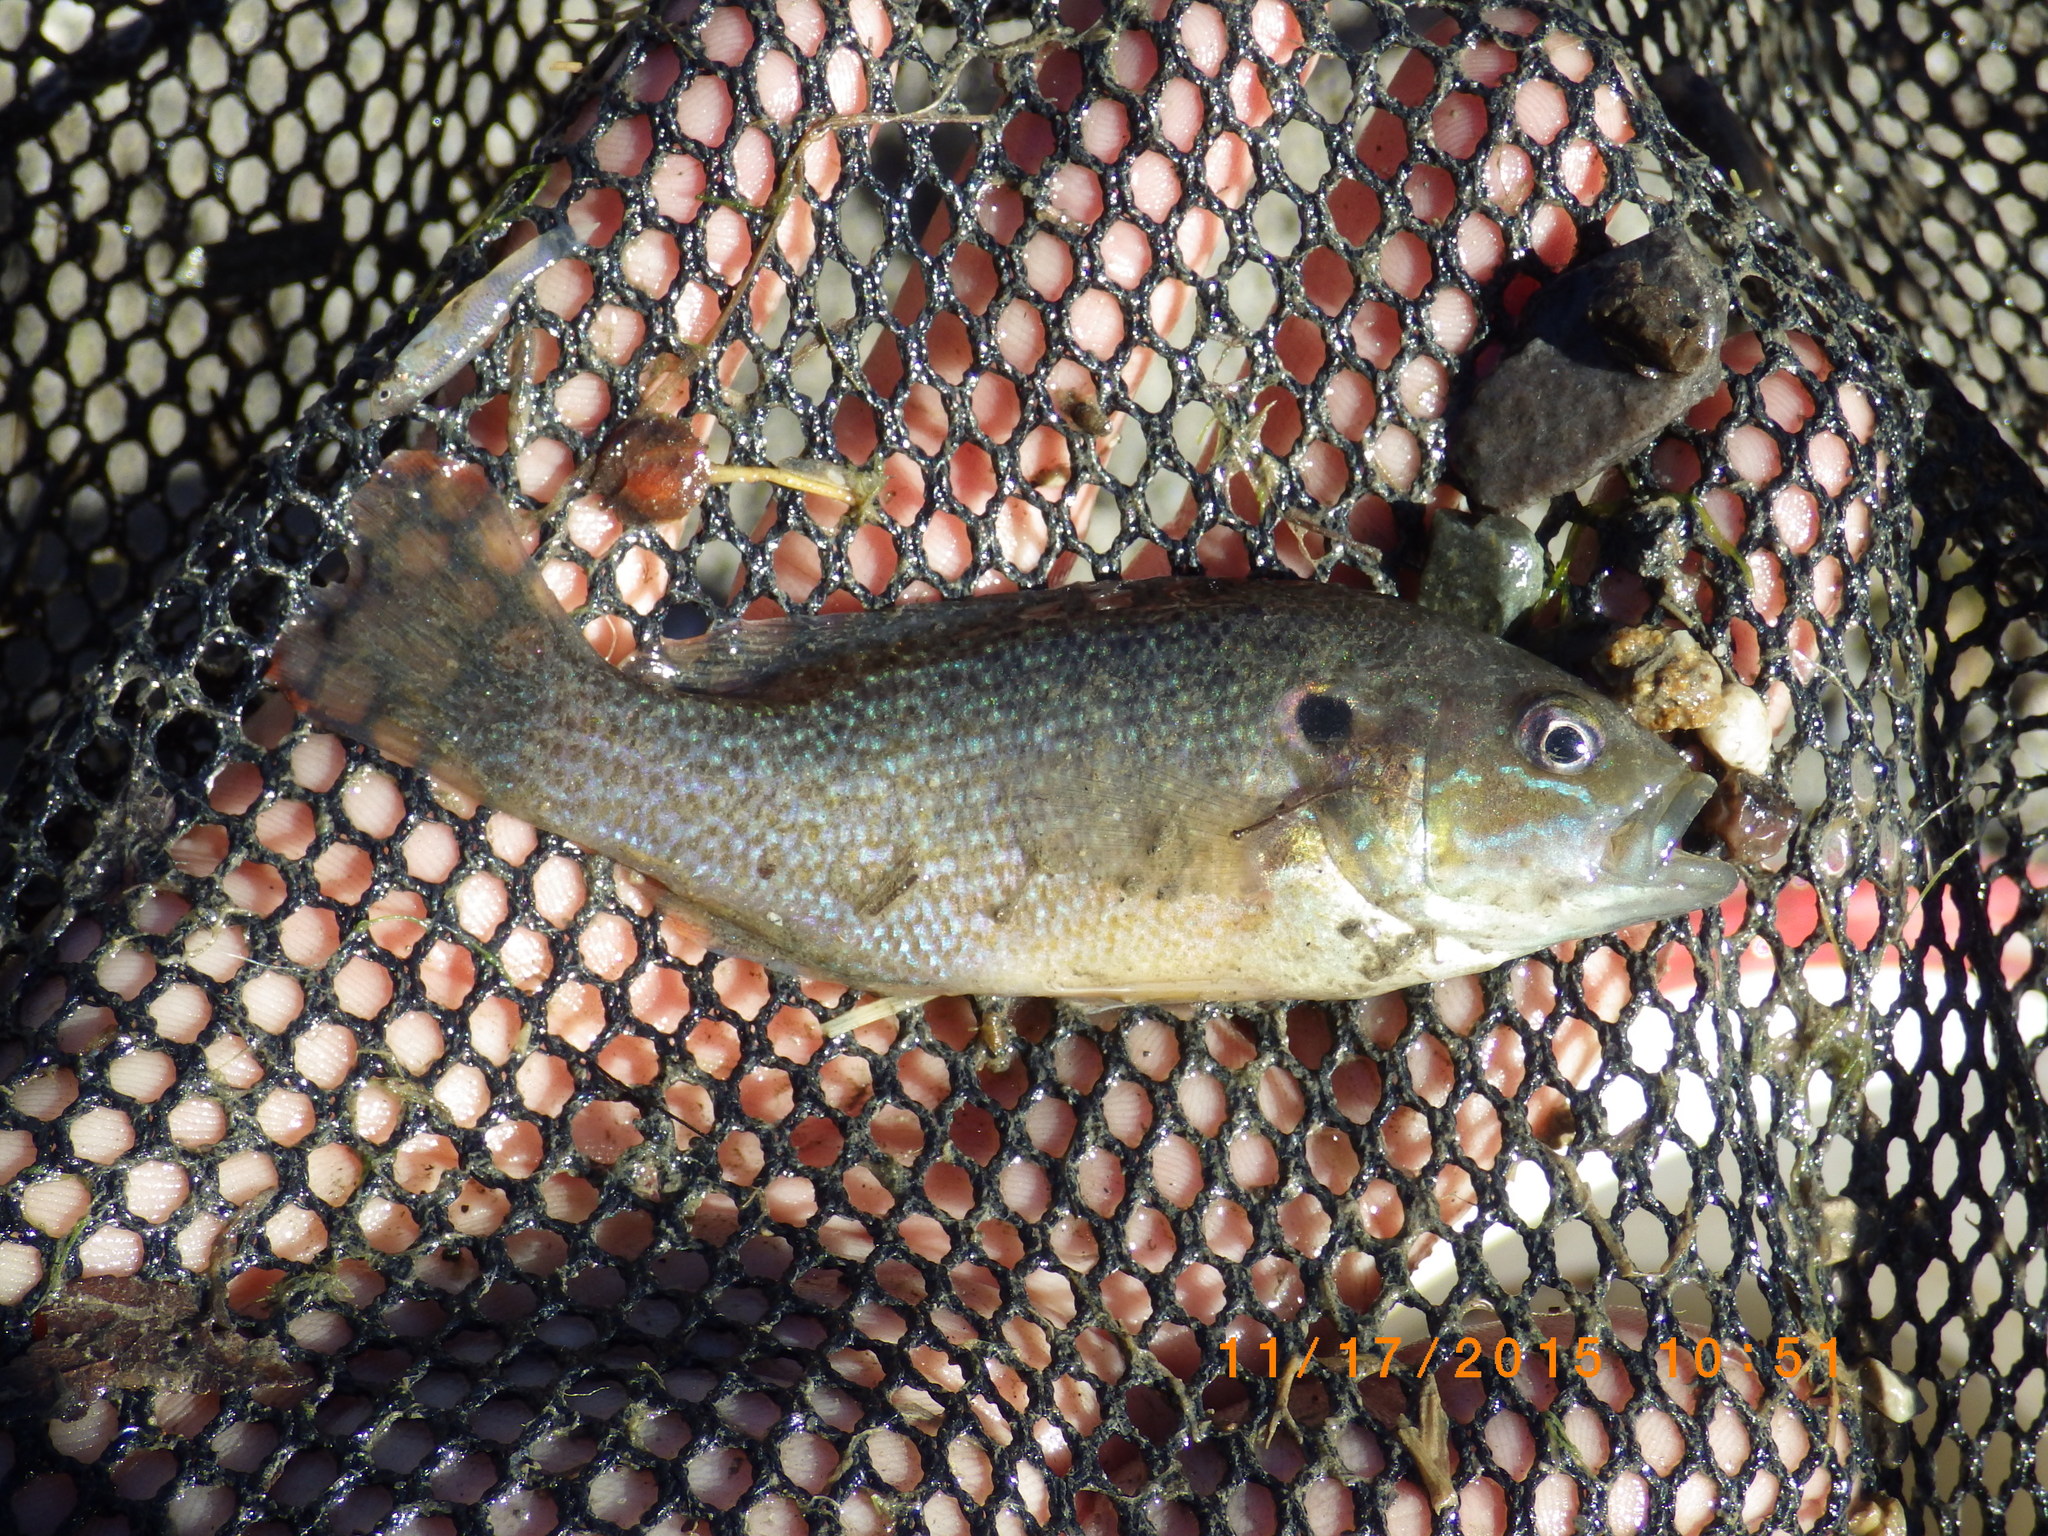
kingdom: Animalia
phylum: Chordata
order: Perciformes
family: Centrarchidae
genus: Lepomis
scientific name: Lepomis cyanellus
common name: Green sunfish
